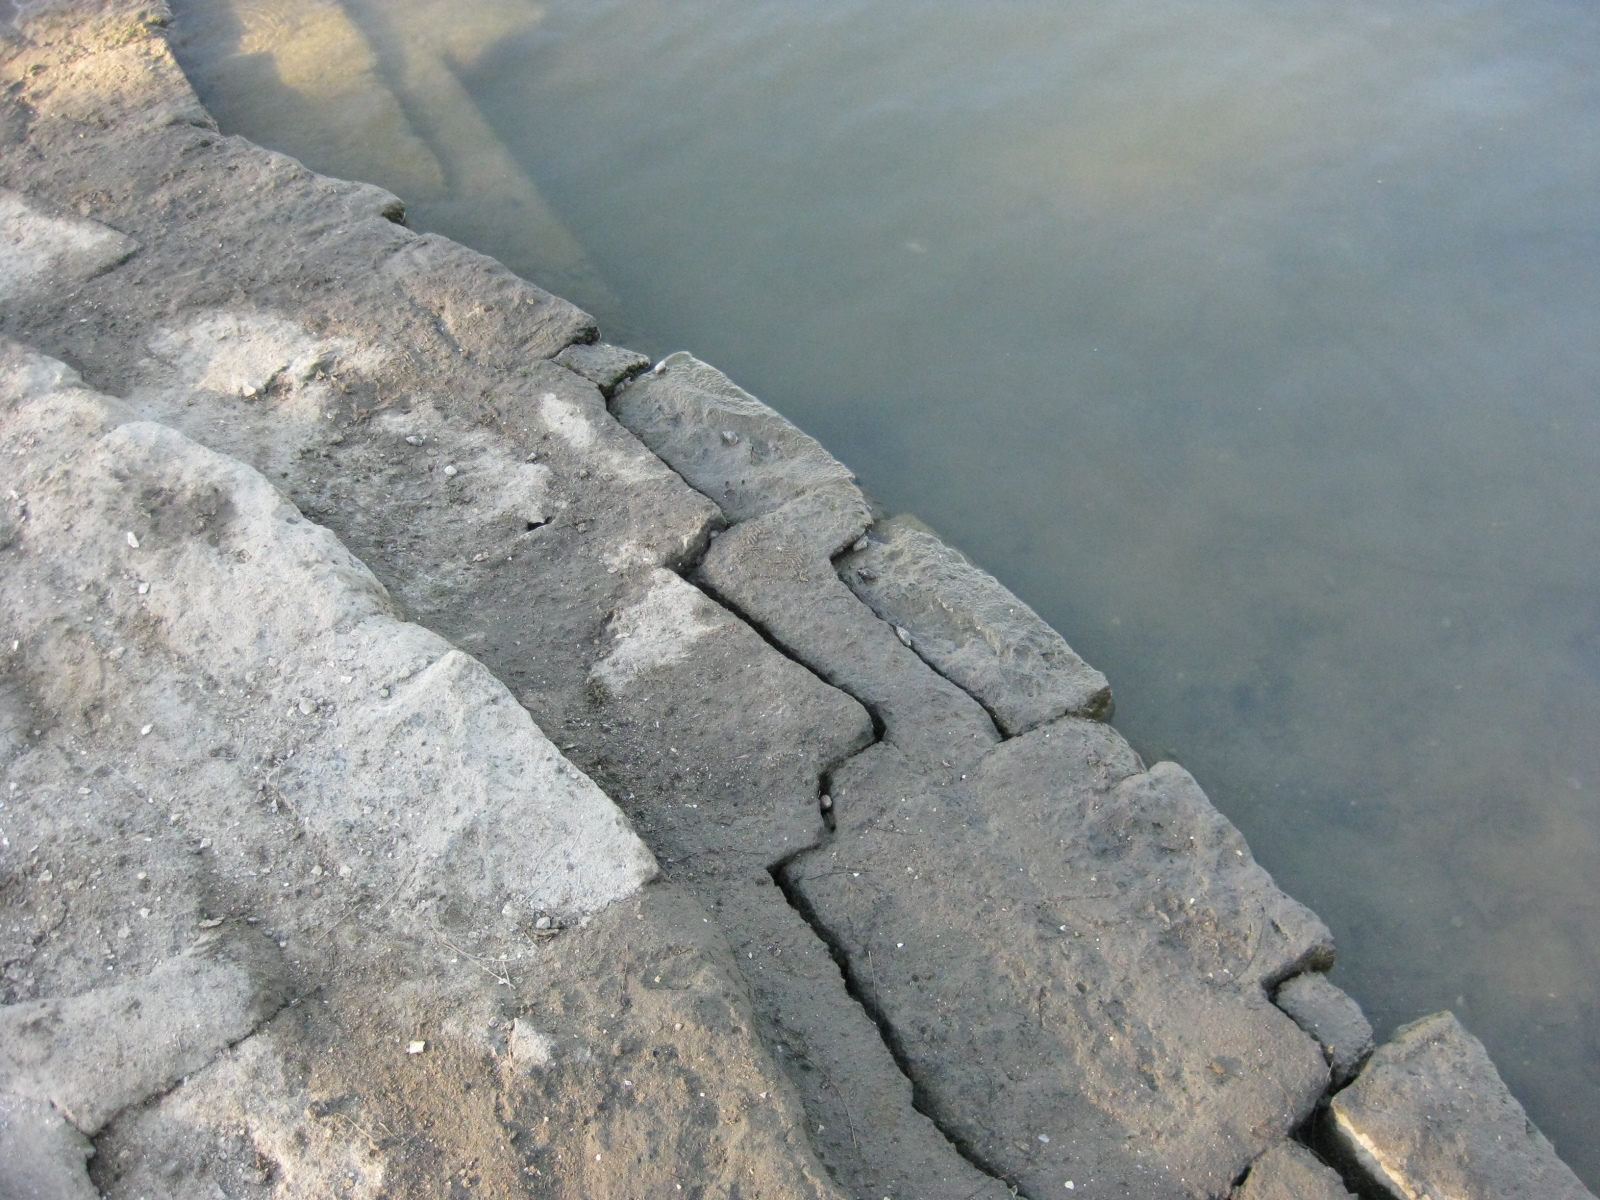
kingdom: Animalia
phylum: Mollusca
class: Gastropoda
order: Neogastropoda
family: Cominellidae
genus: Cominella
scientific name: Cominella glandiformis
